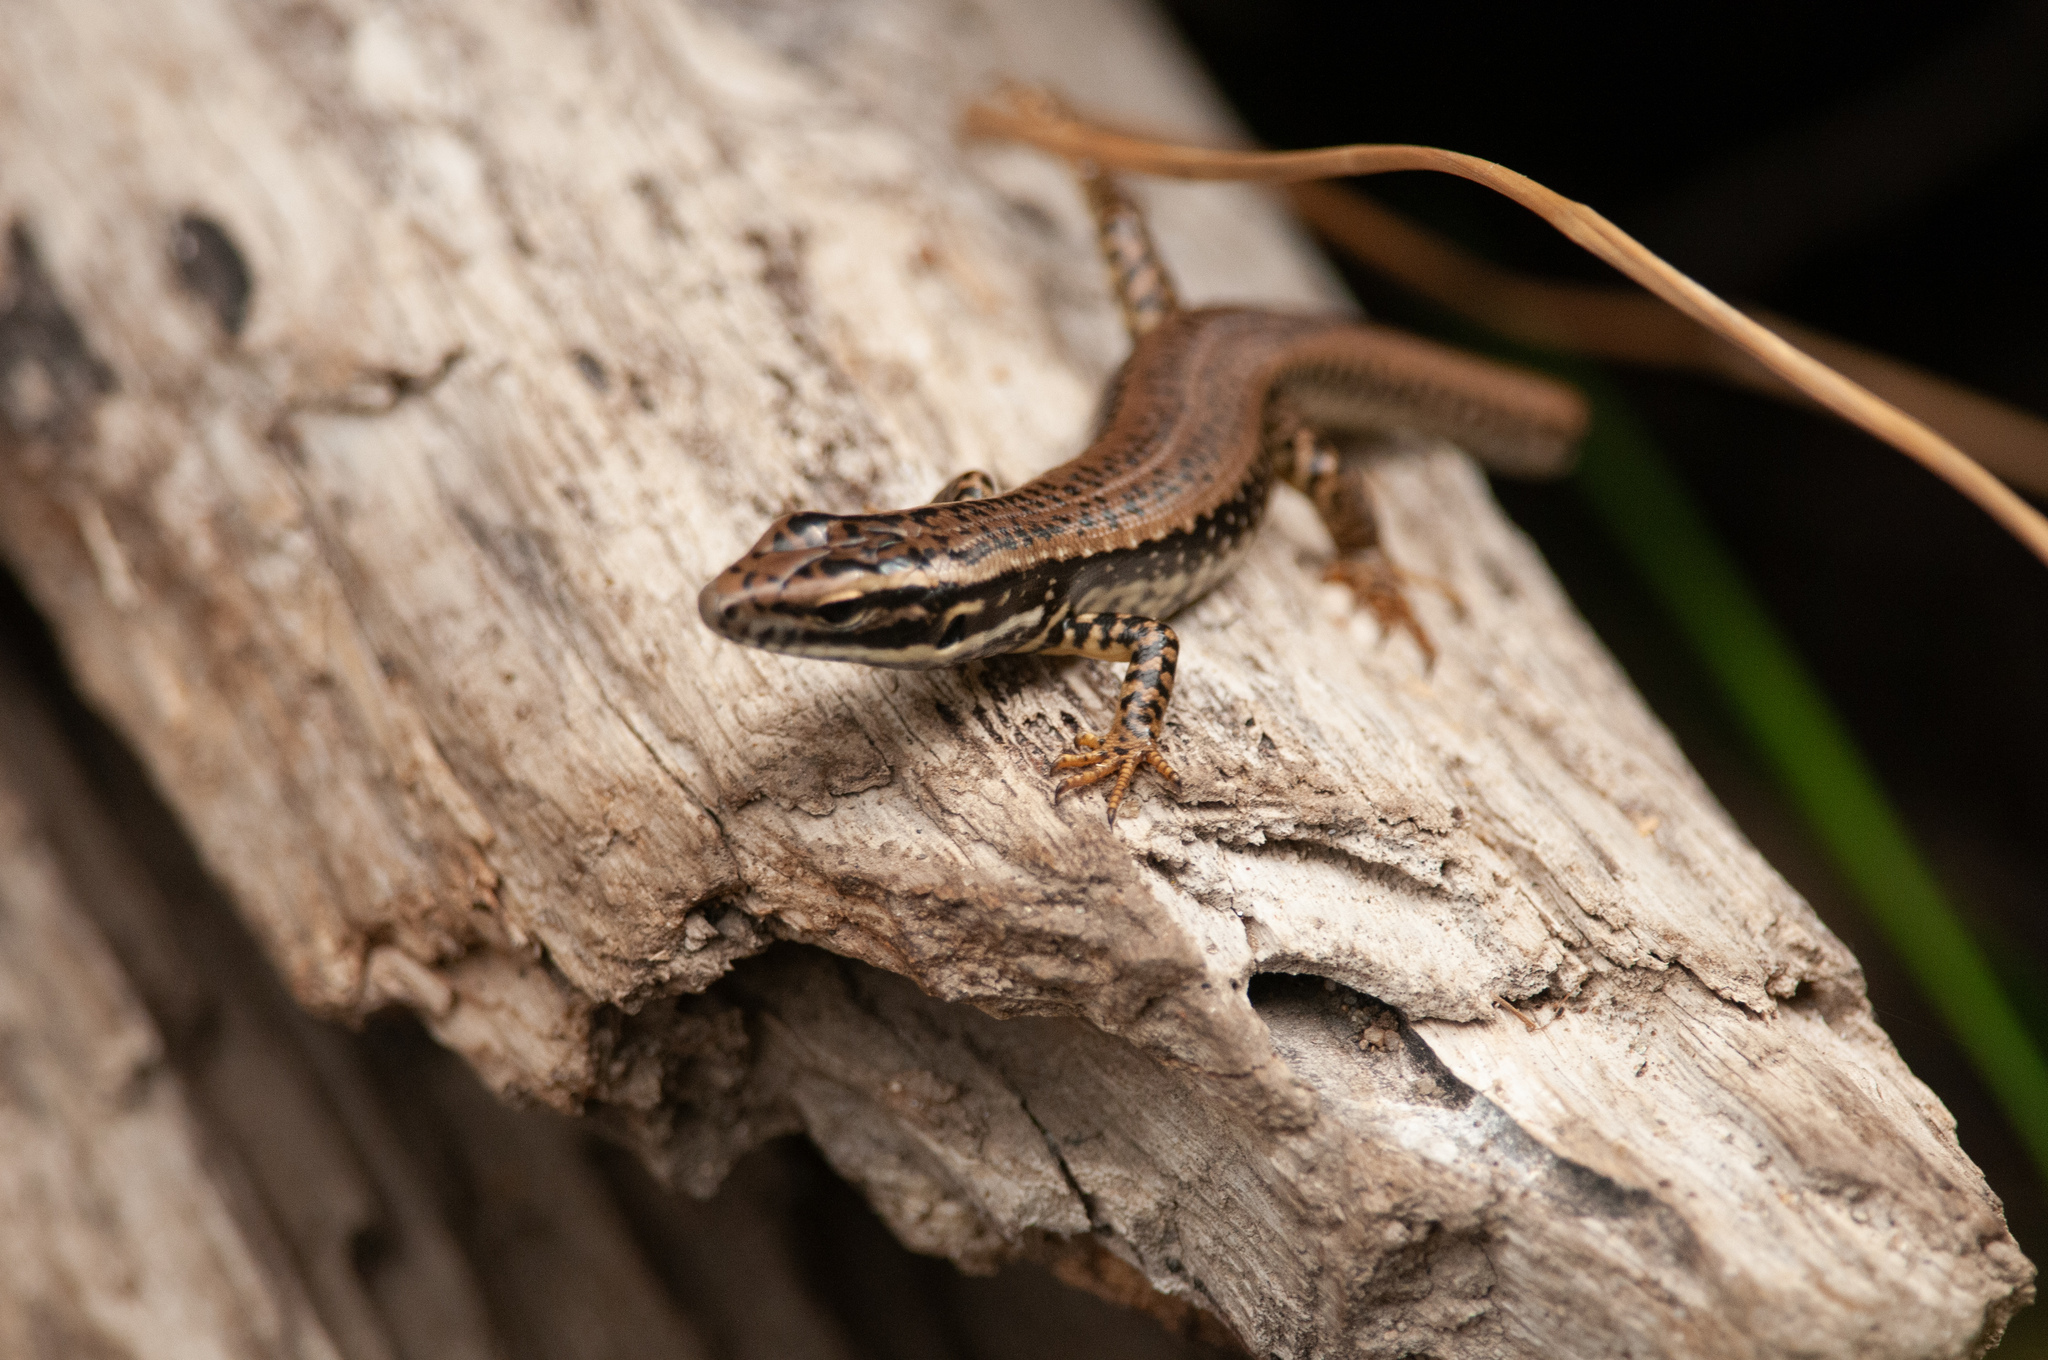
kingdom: Animalia
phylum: Chordata
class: Squamata
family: Scincidae
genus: Eulamprus
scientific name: Eulamprus heatwolei
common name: Warm-temperate water-skink
